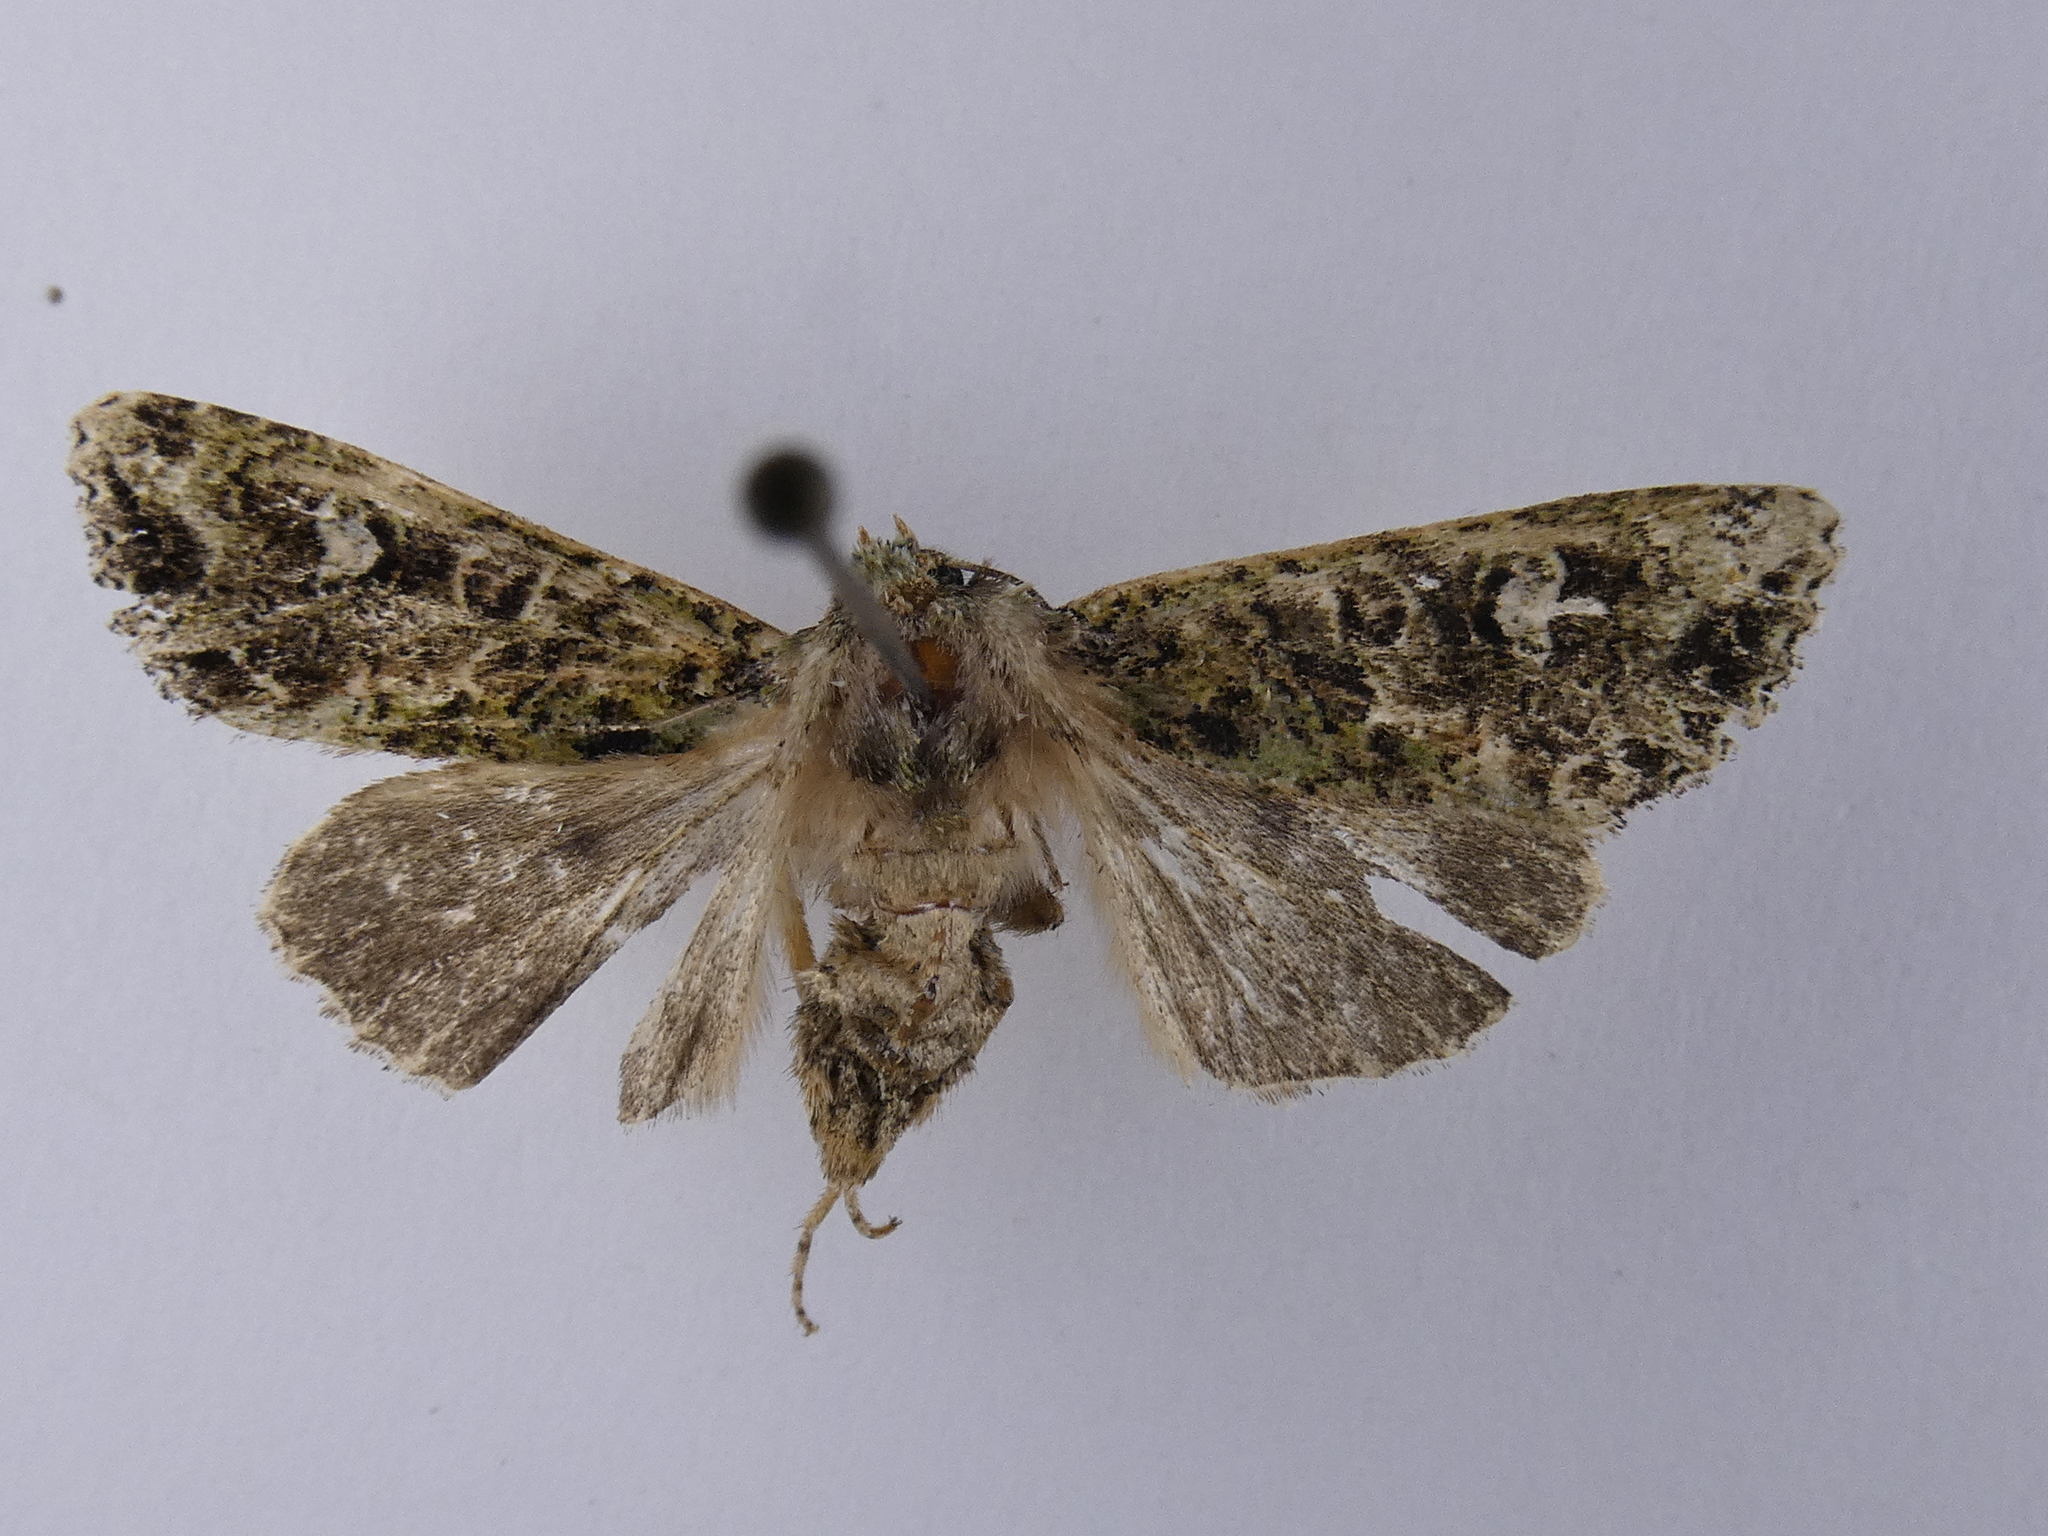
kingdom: Animalia
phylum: Arthropoda
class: Insecta
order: Lepidoptera
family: Noctuidae
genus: Ichneutica
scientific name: Ichneutica
